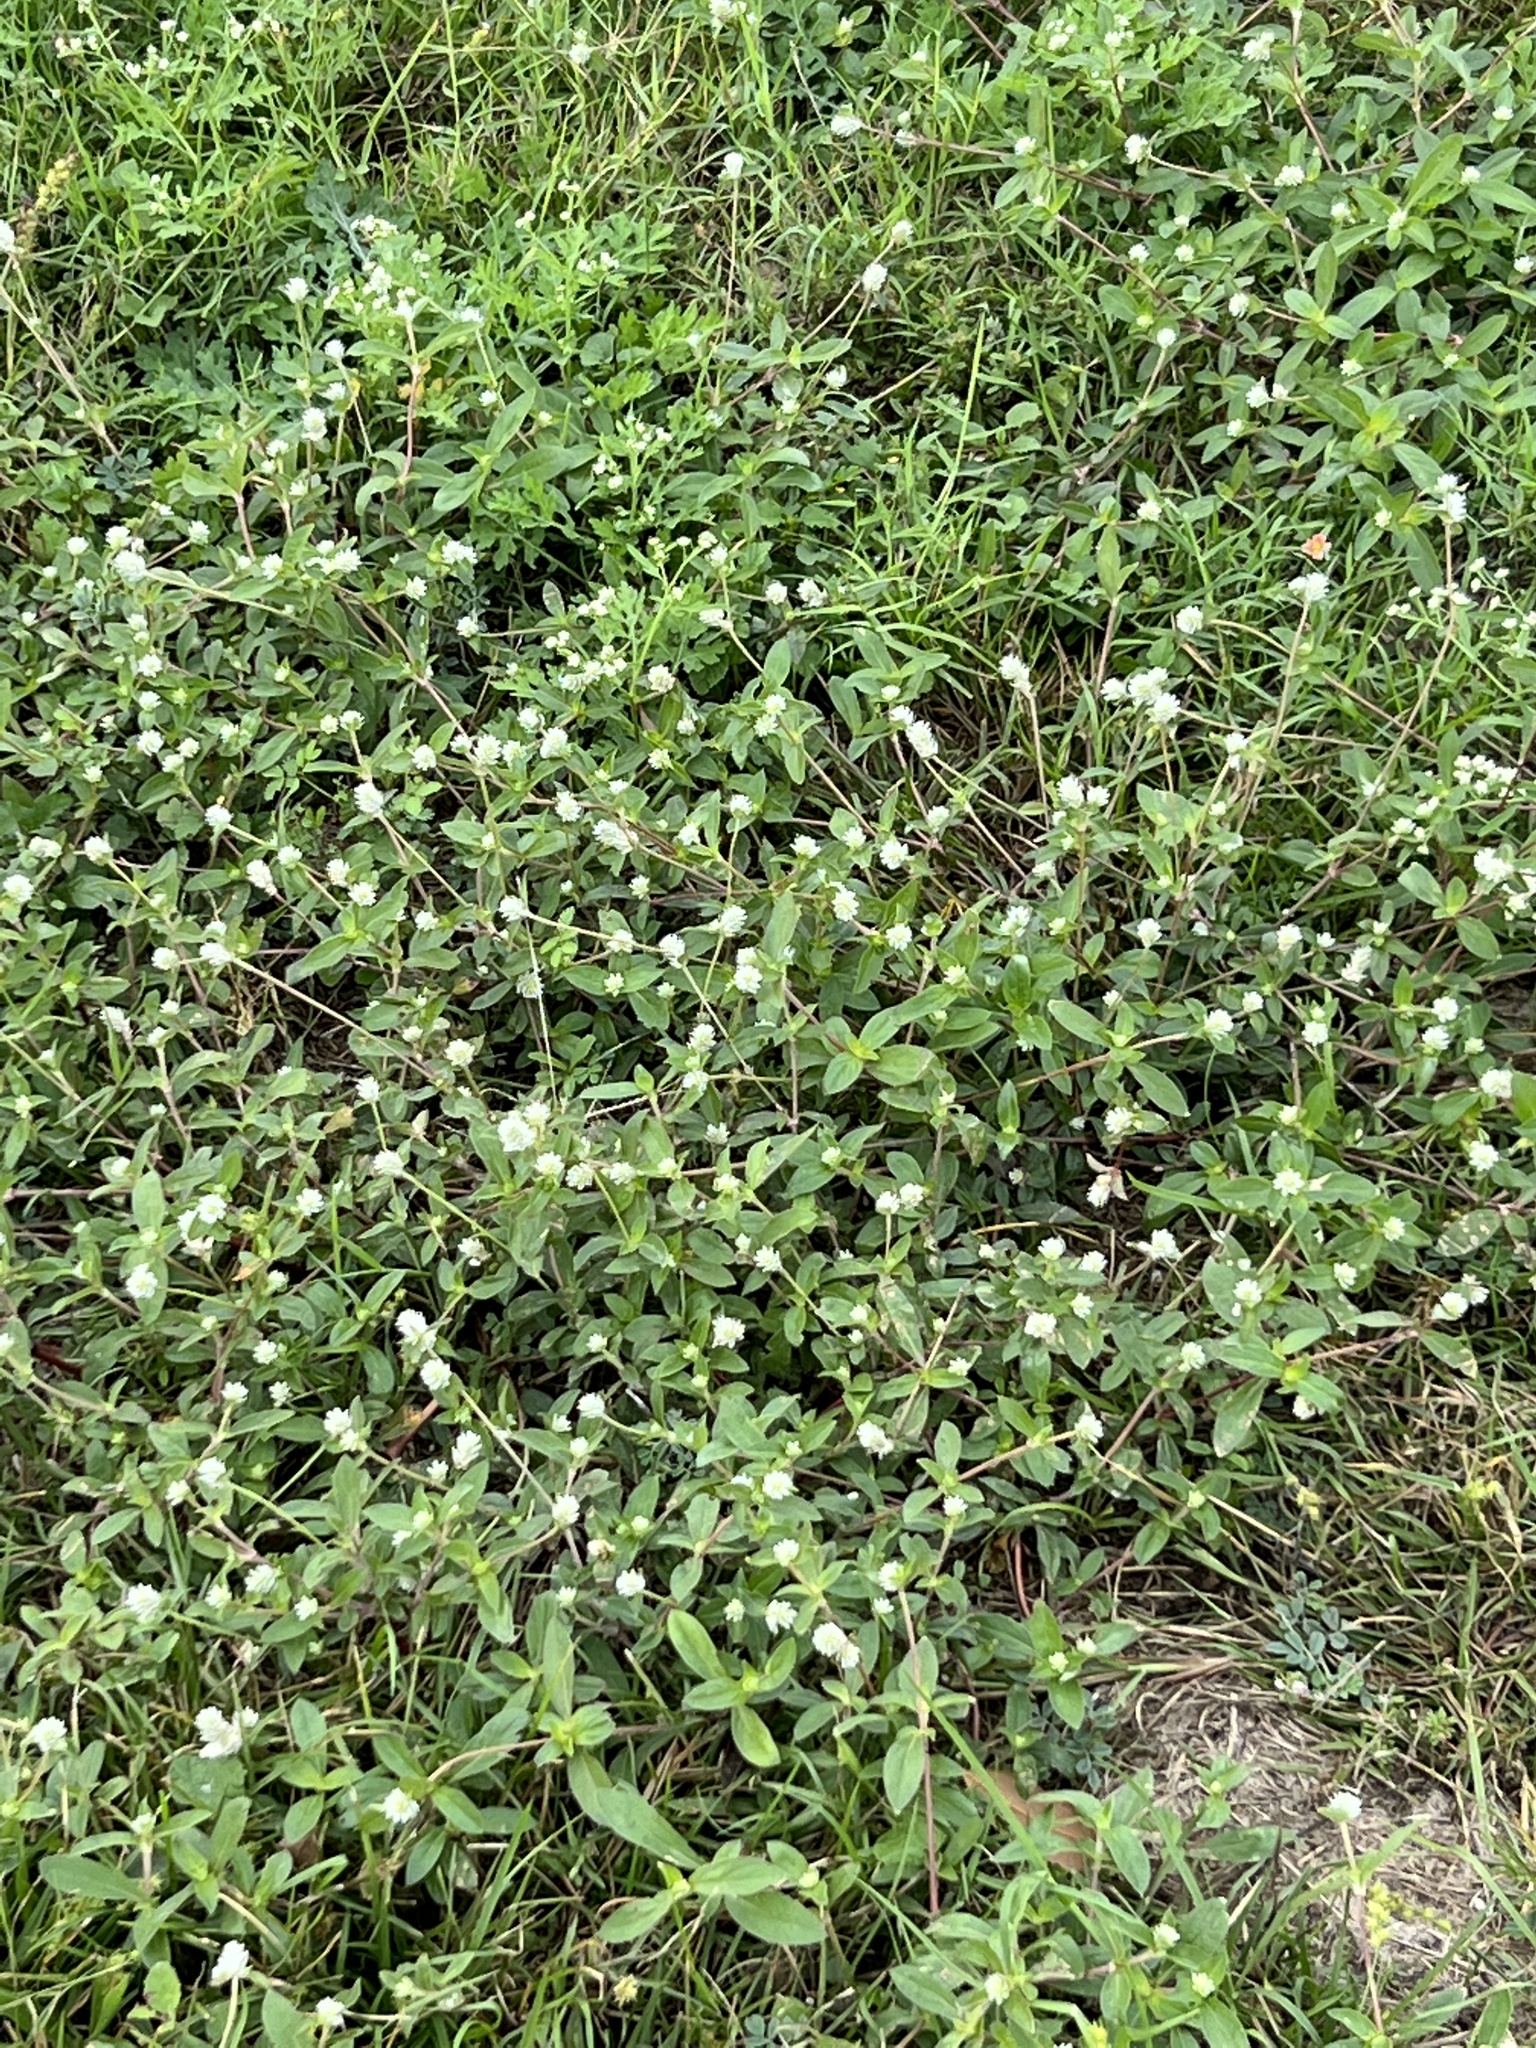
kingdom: Plantae
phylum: Tracheophyta
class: Magnoliopsida
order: Caryophyllales
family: Amaranthaceae
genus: Gomphrena
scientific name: Gomphrena serrata
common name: Arrasa con todo
